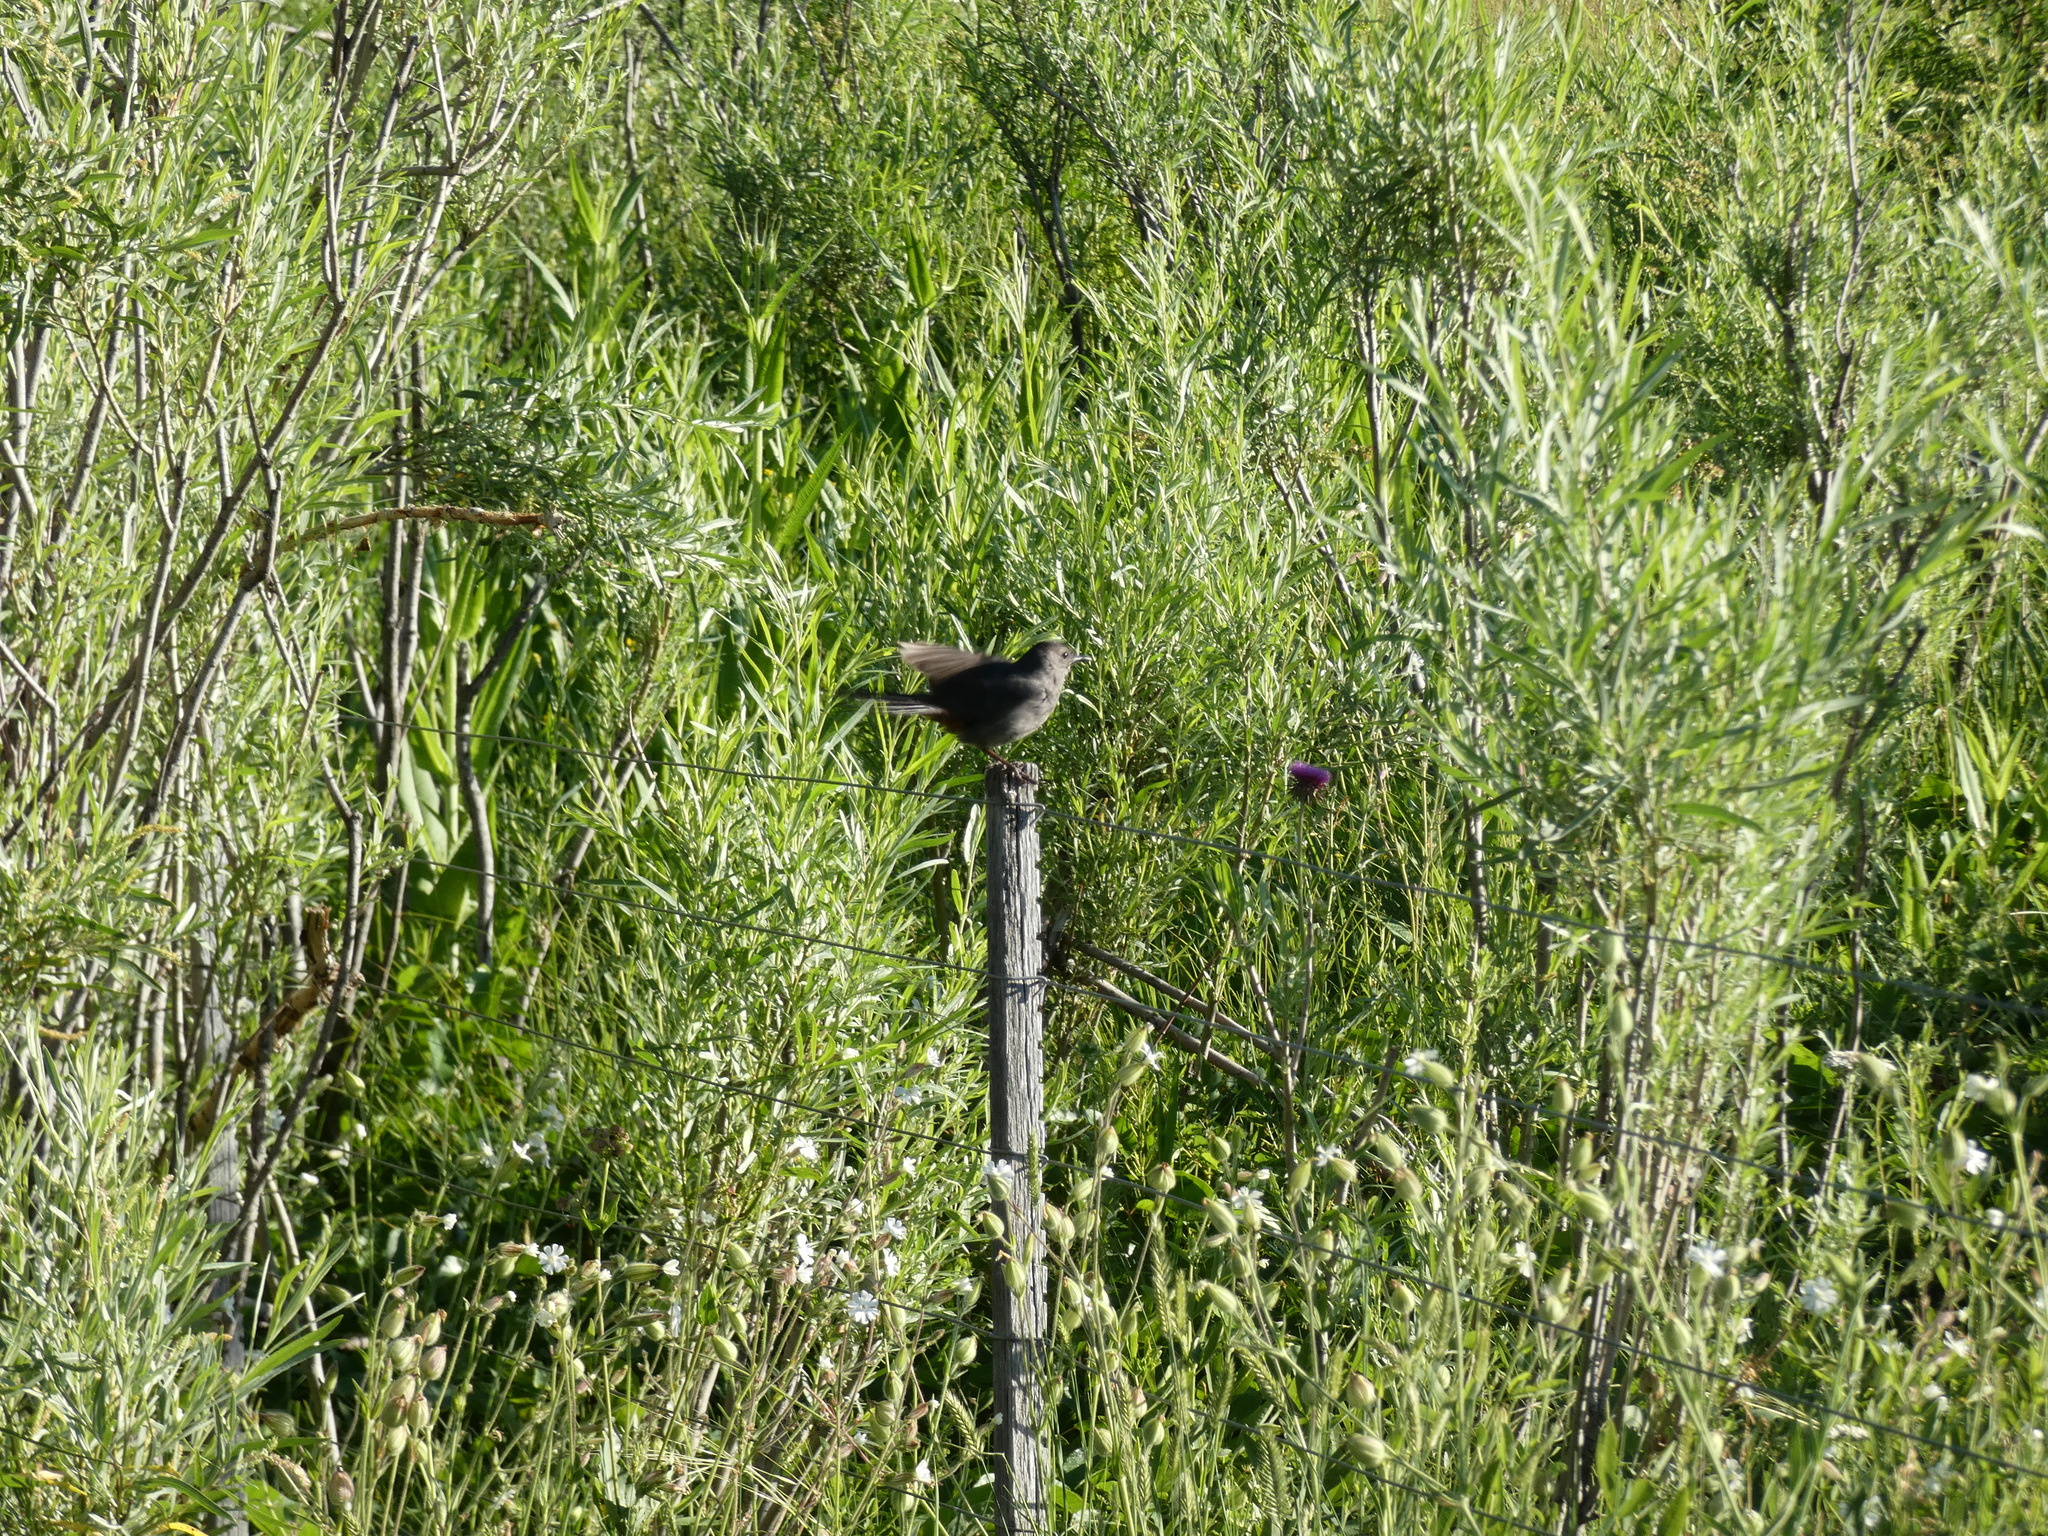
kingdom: Animalia
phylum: Chordata
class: Aves
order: Passeriformes
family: Mimidae
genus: Dumetella
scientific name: Dumetella carolinensis
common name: Gray catbird
